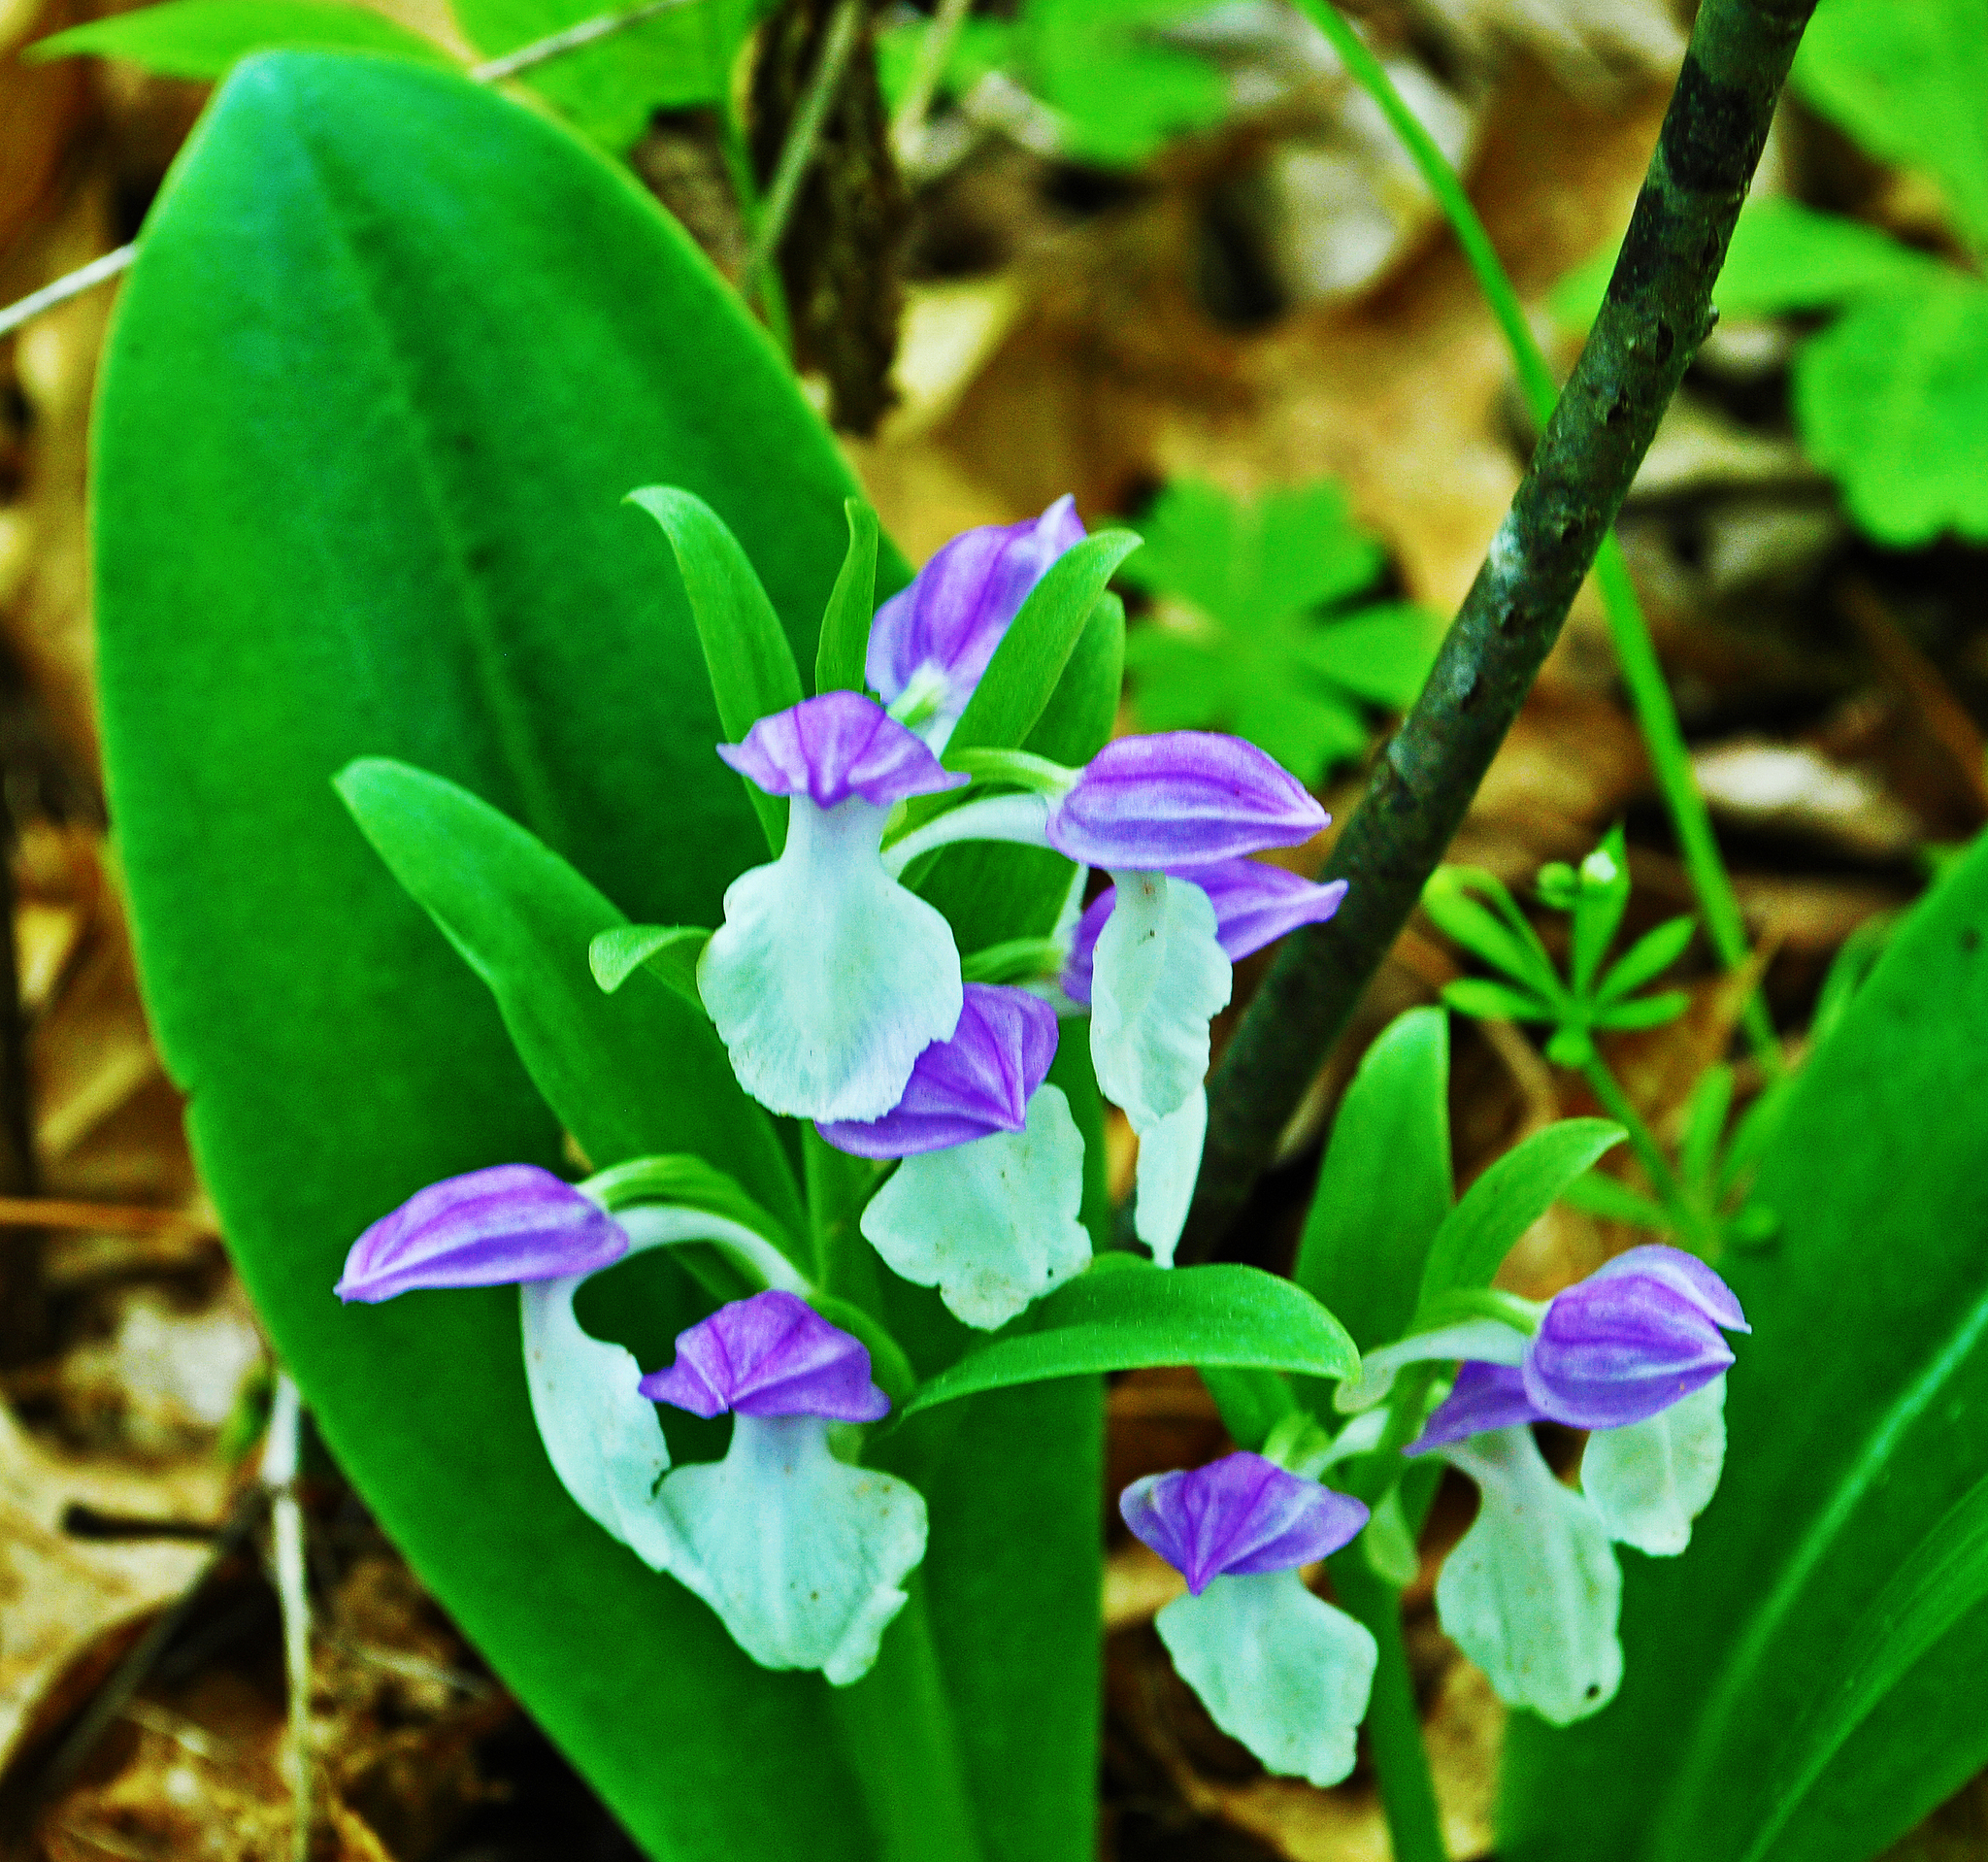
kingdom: Plantae
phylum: Tracheophyta
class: Liliopsida
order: Asparagales
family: Orchidaceae
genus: Galearis
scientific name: Galearis spectabilis
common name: Purple-hooded orchis
